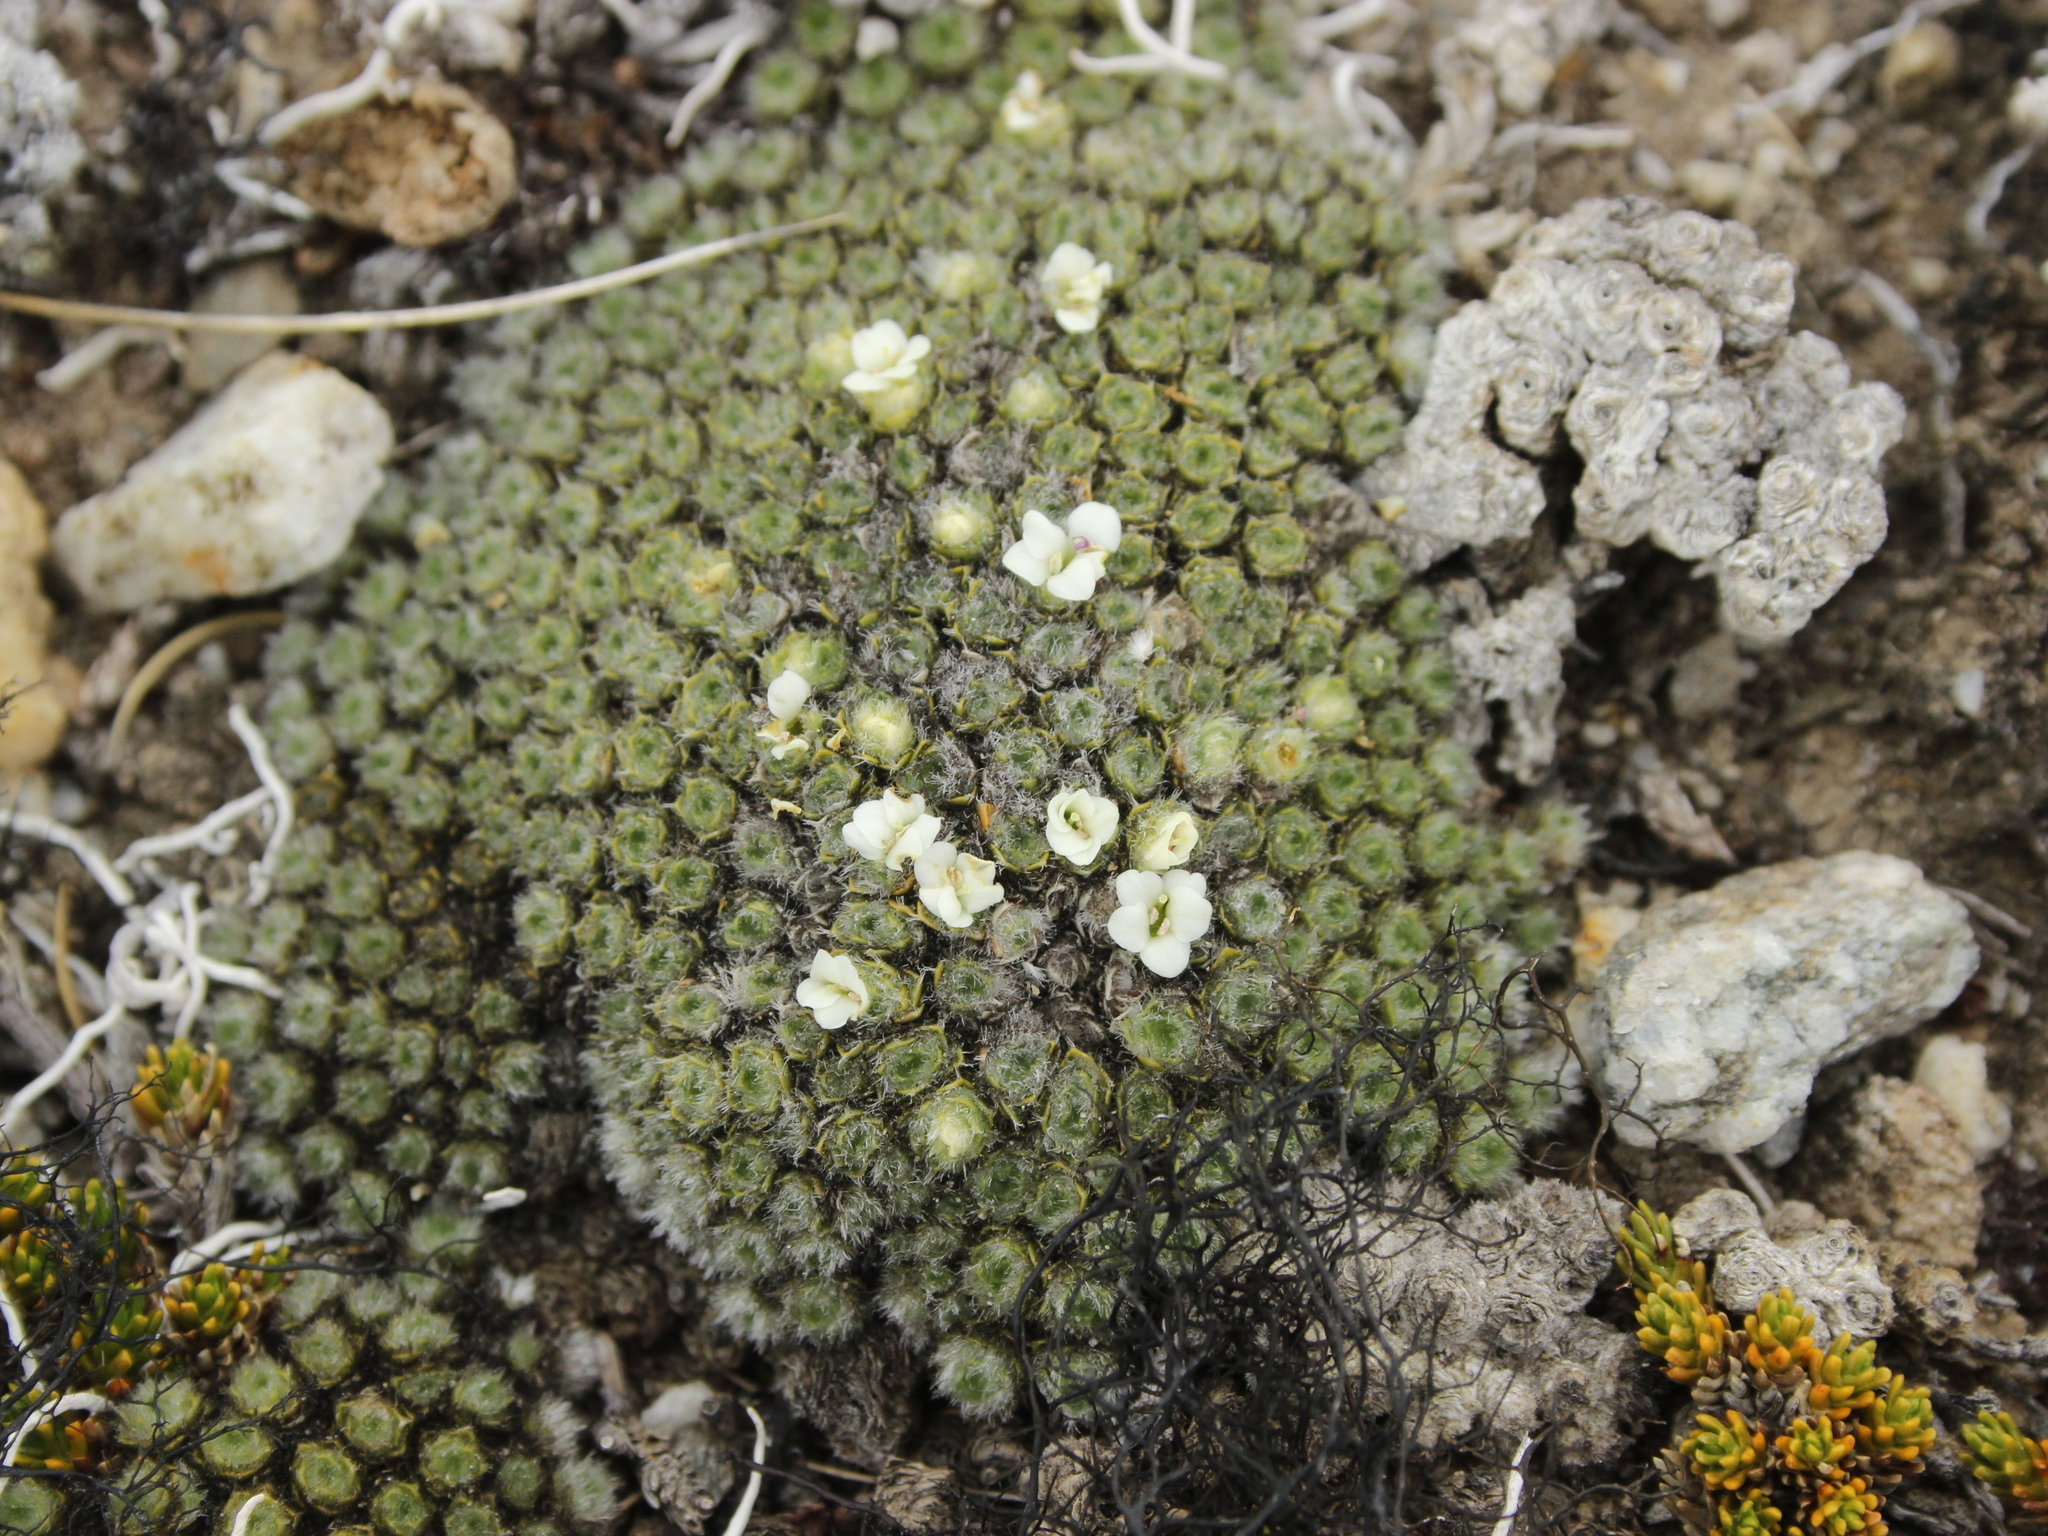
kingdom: Plantae
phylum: Tracheophyta
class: Magnoliopsida
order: Lamiales
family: Plantaginaceae
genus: Veronica
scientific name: Veronica thomsonii
